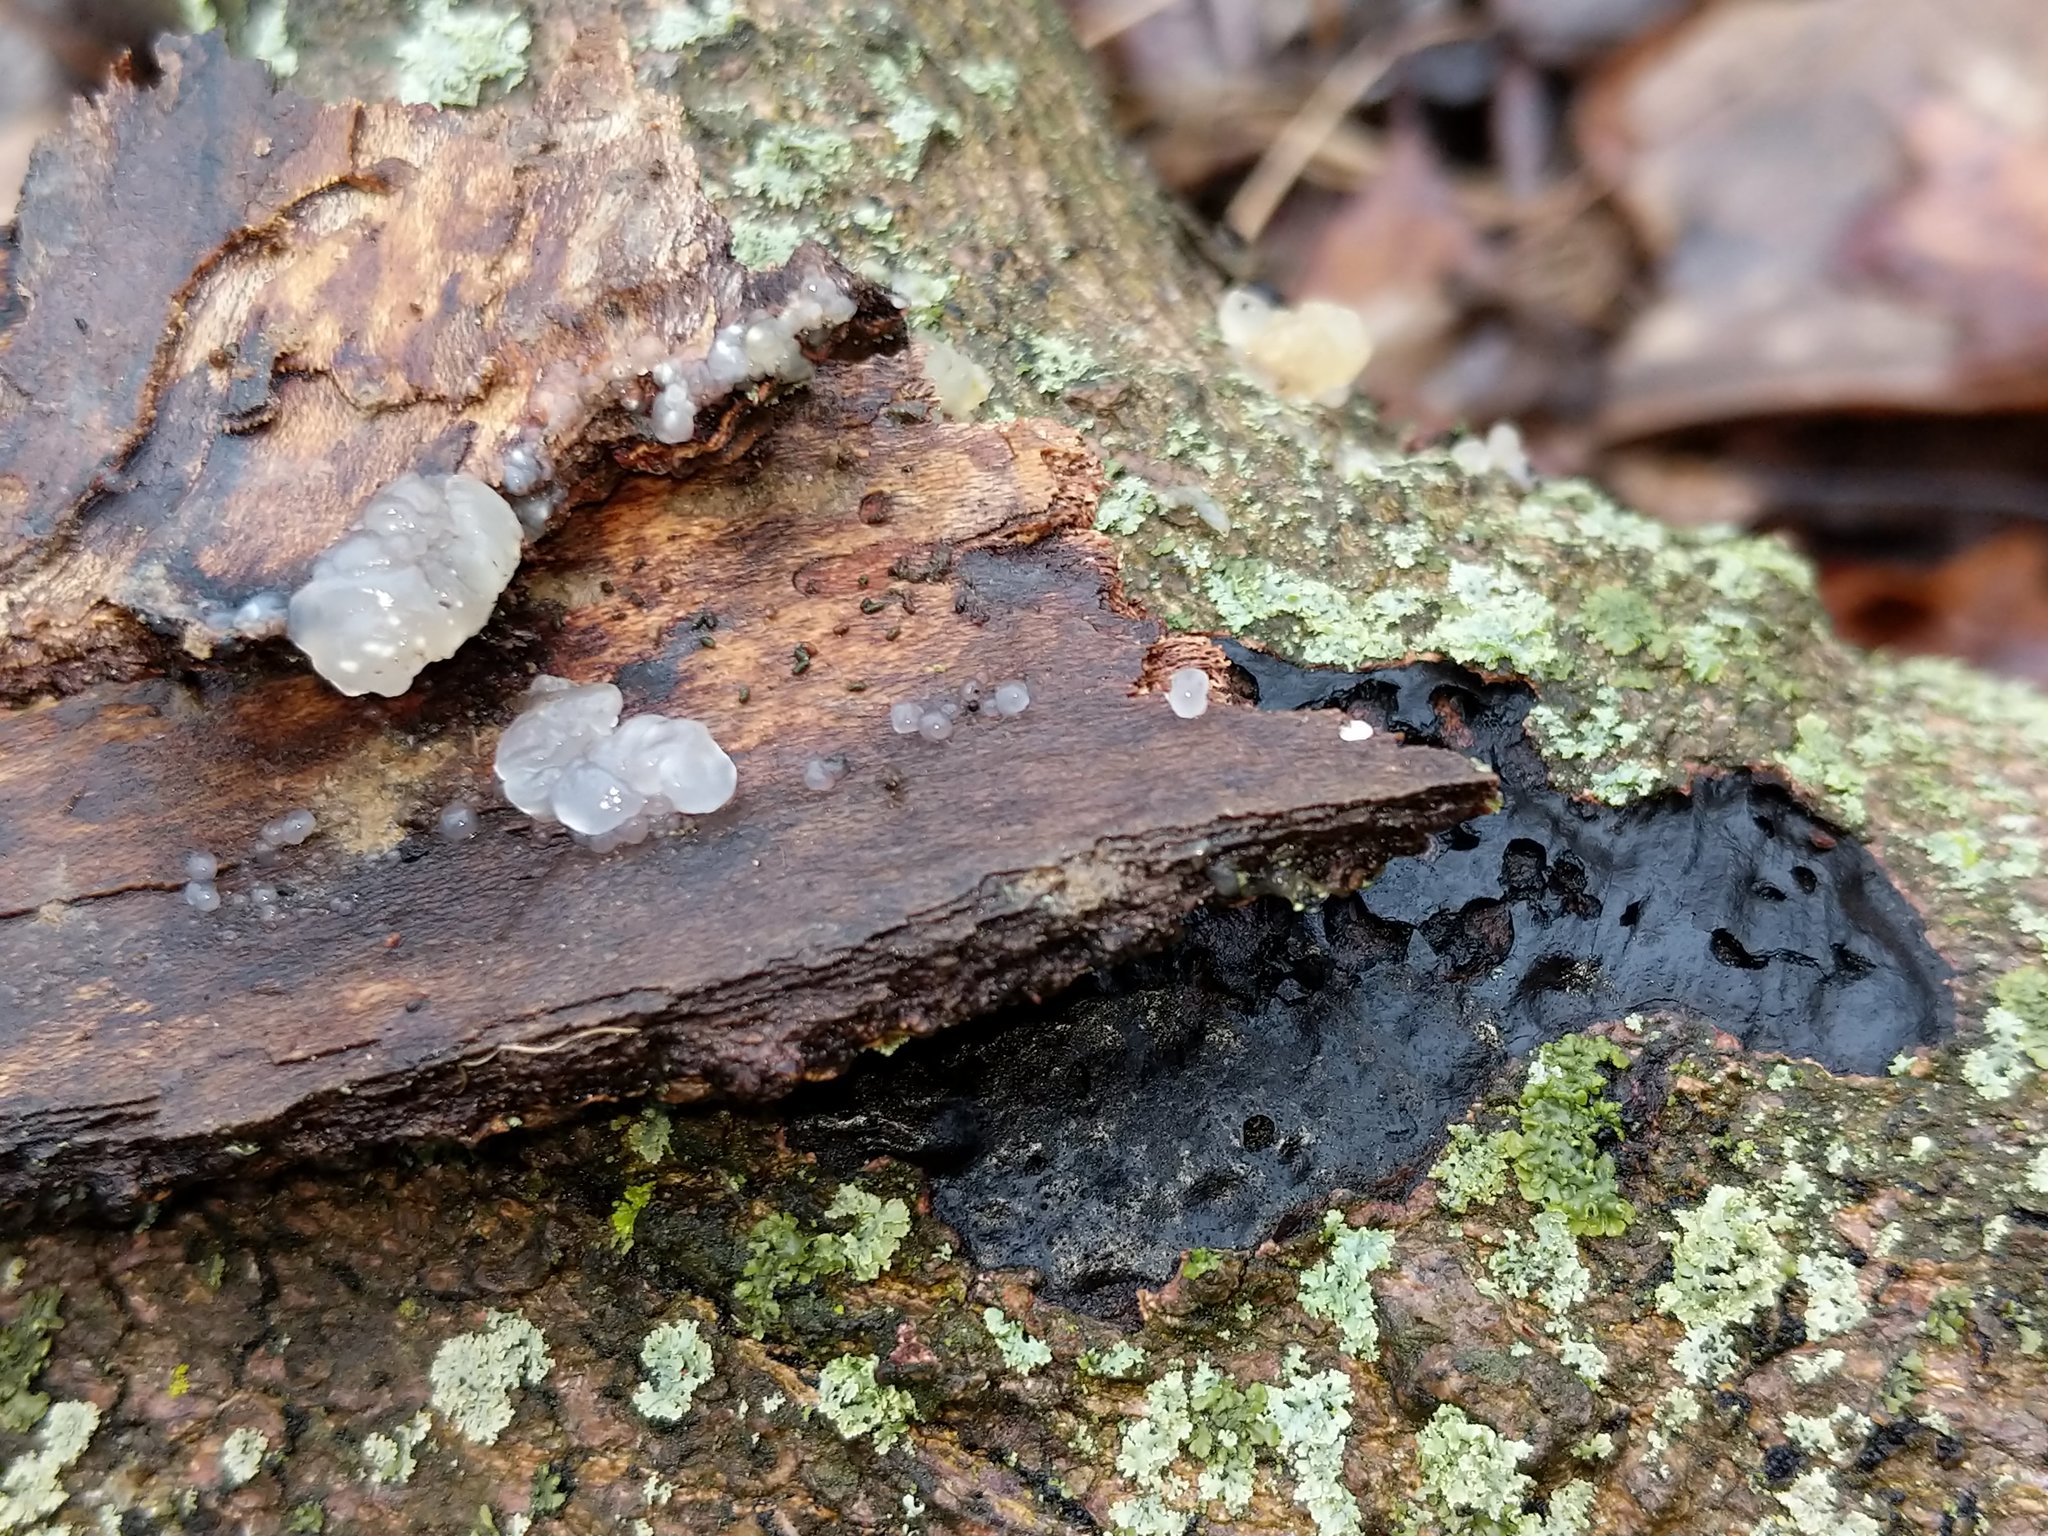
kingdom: Fungi
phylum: Basidiomycota
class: Agaricomycetes
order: Auriculariales
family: Hyaloriaceae
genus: Myxarium
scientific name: Myxarium nucleatum
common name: Crystal brain fungus
